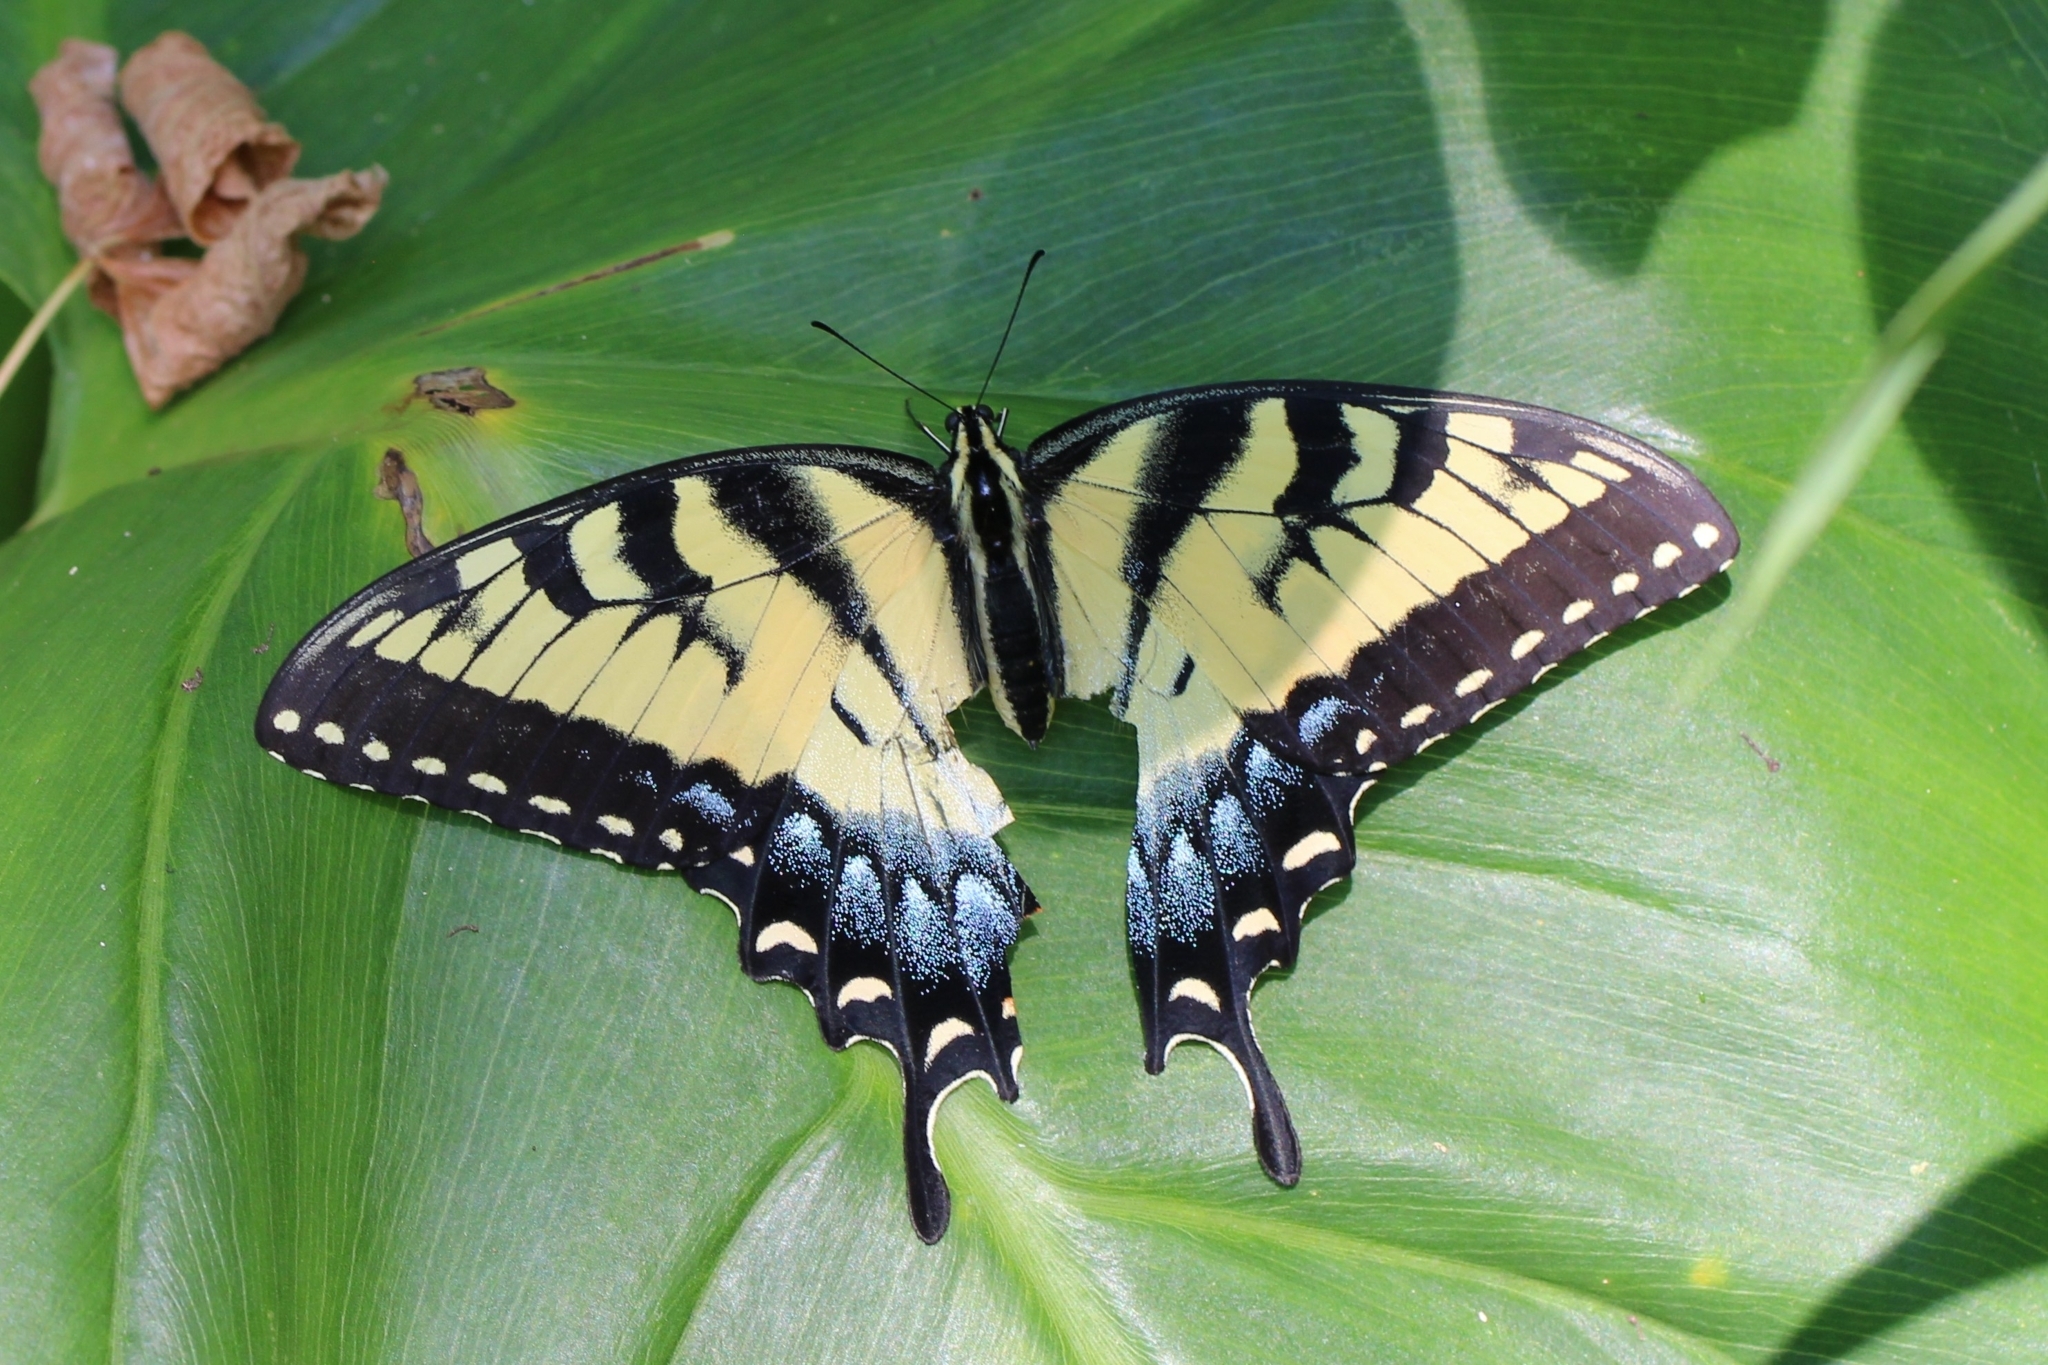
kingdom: Animalia
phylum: Arthropoda
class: Insecta
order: Lepidoptera
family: Papilionidae
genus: Papilio
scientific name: Papilio glaucus
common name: Tiger swallowtail
